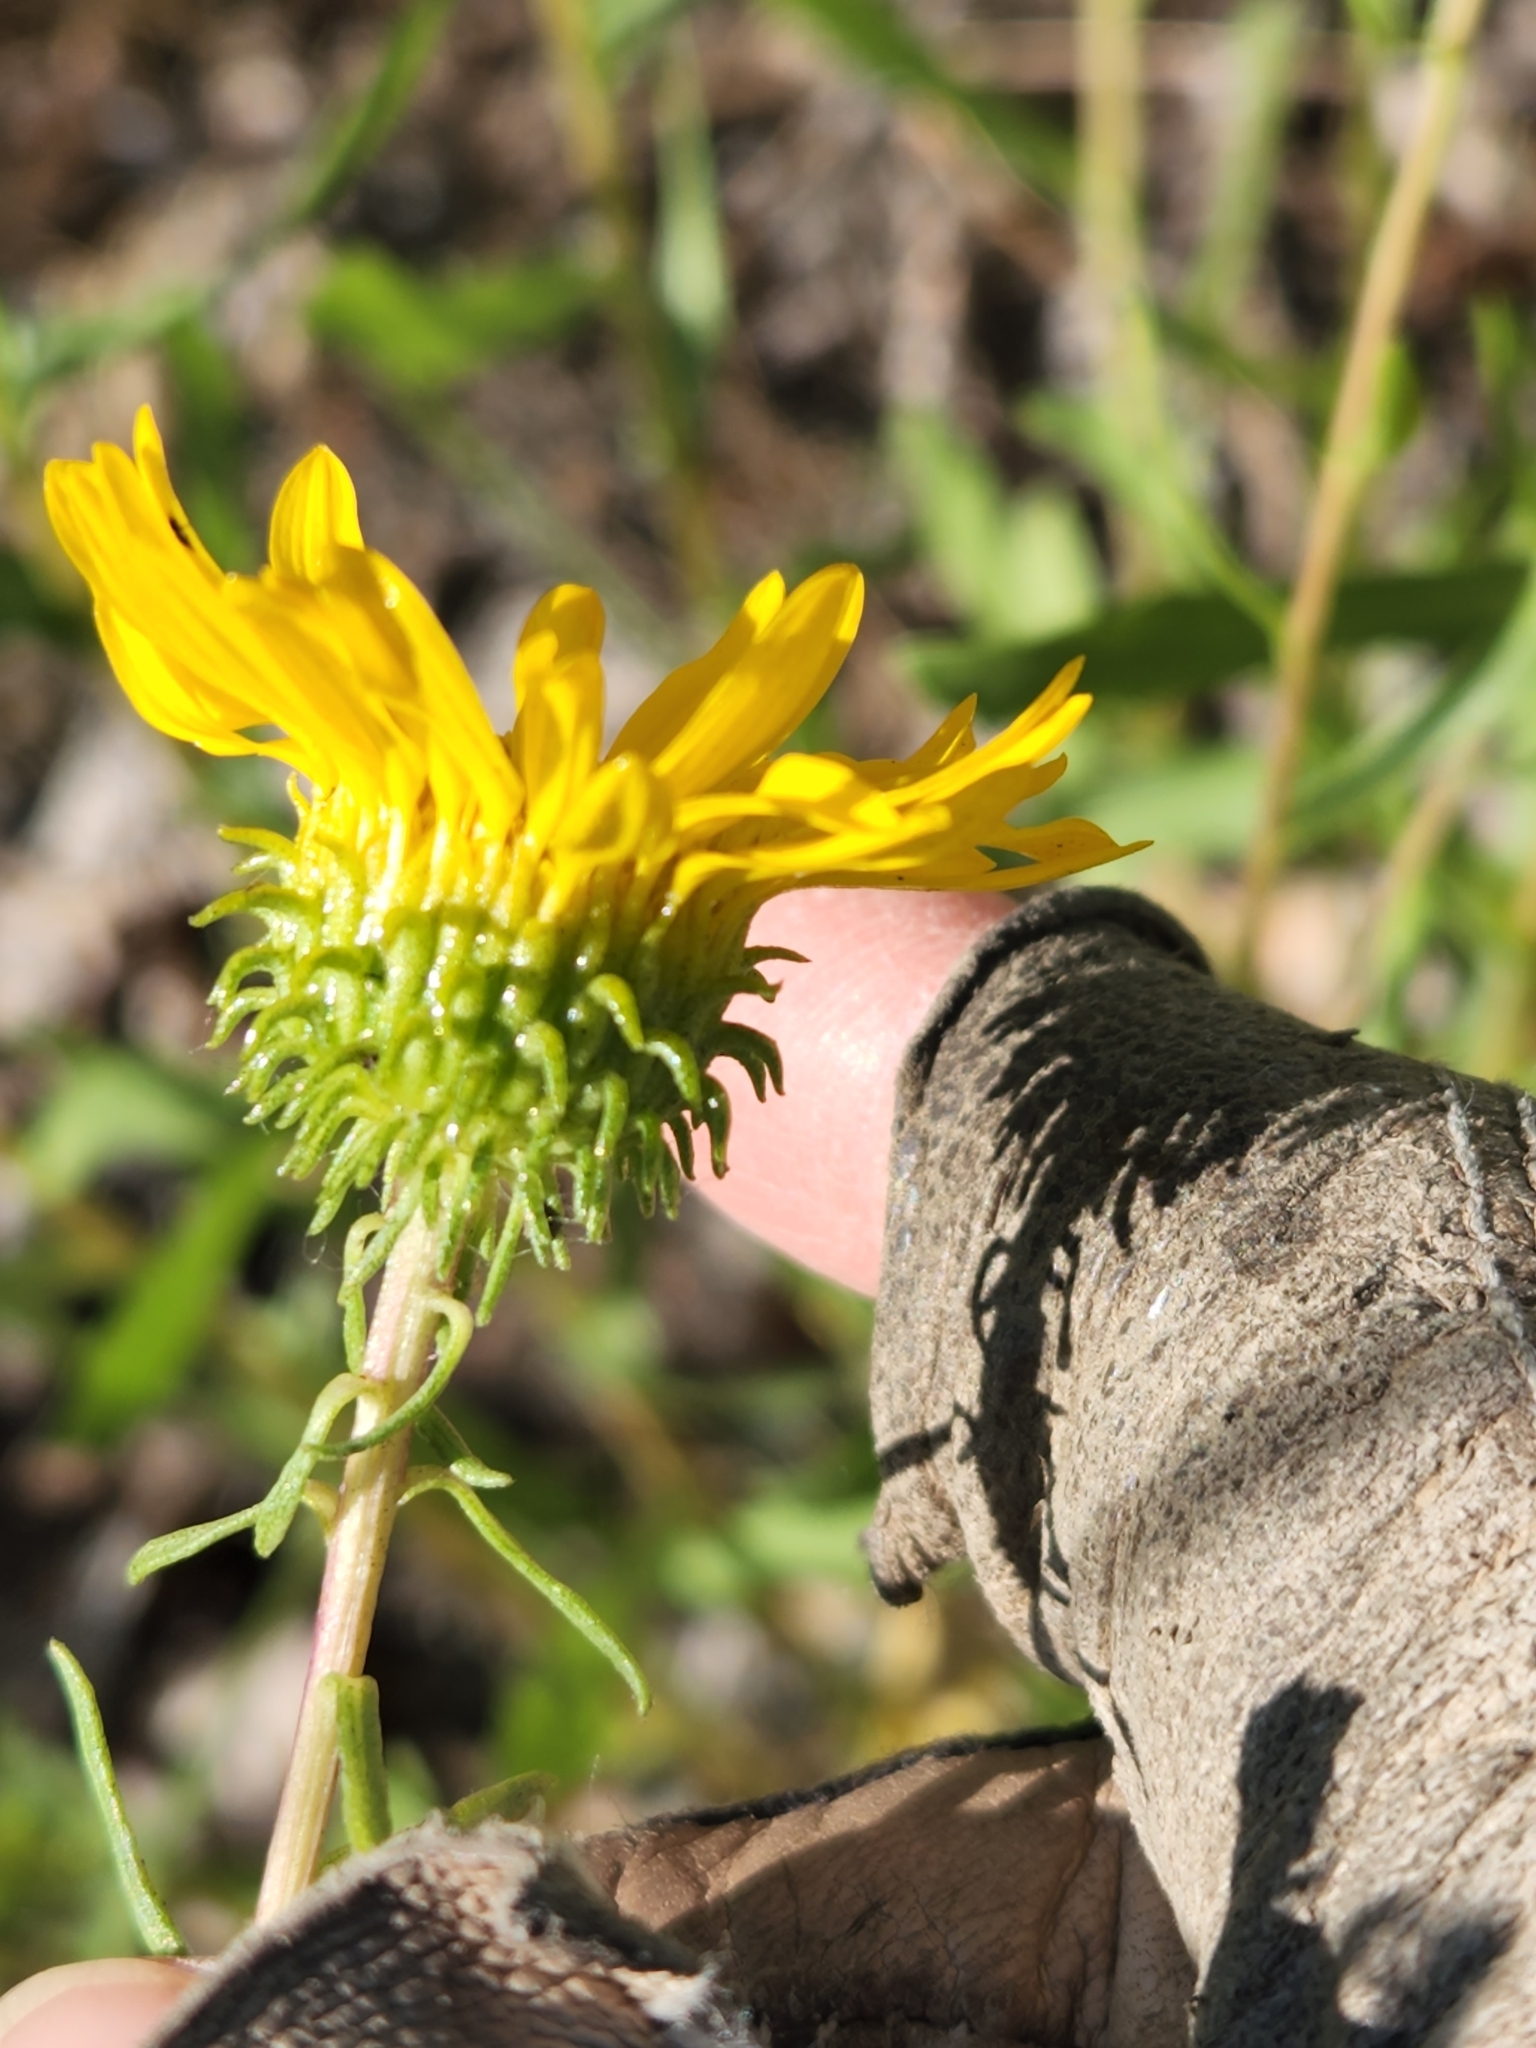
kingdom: Plantae
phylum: Tracheophyta
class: Magnoliopsida
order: Asterales
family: Asteraceae
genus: Grindelia
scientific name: Grindelia squarrosa
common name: Curly-cup gumweed
